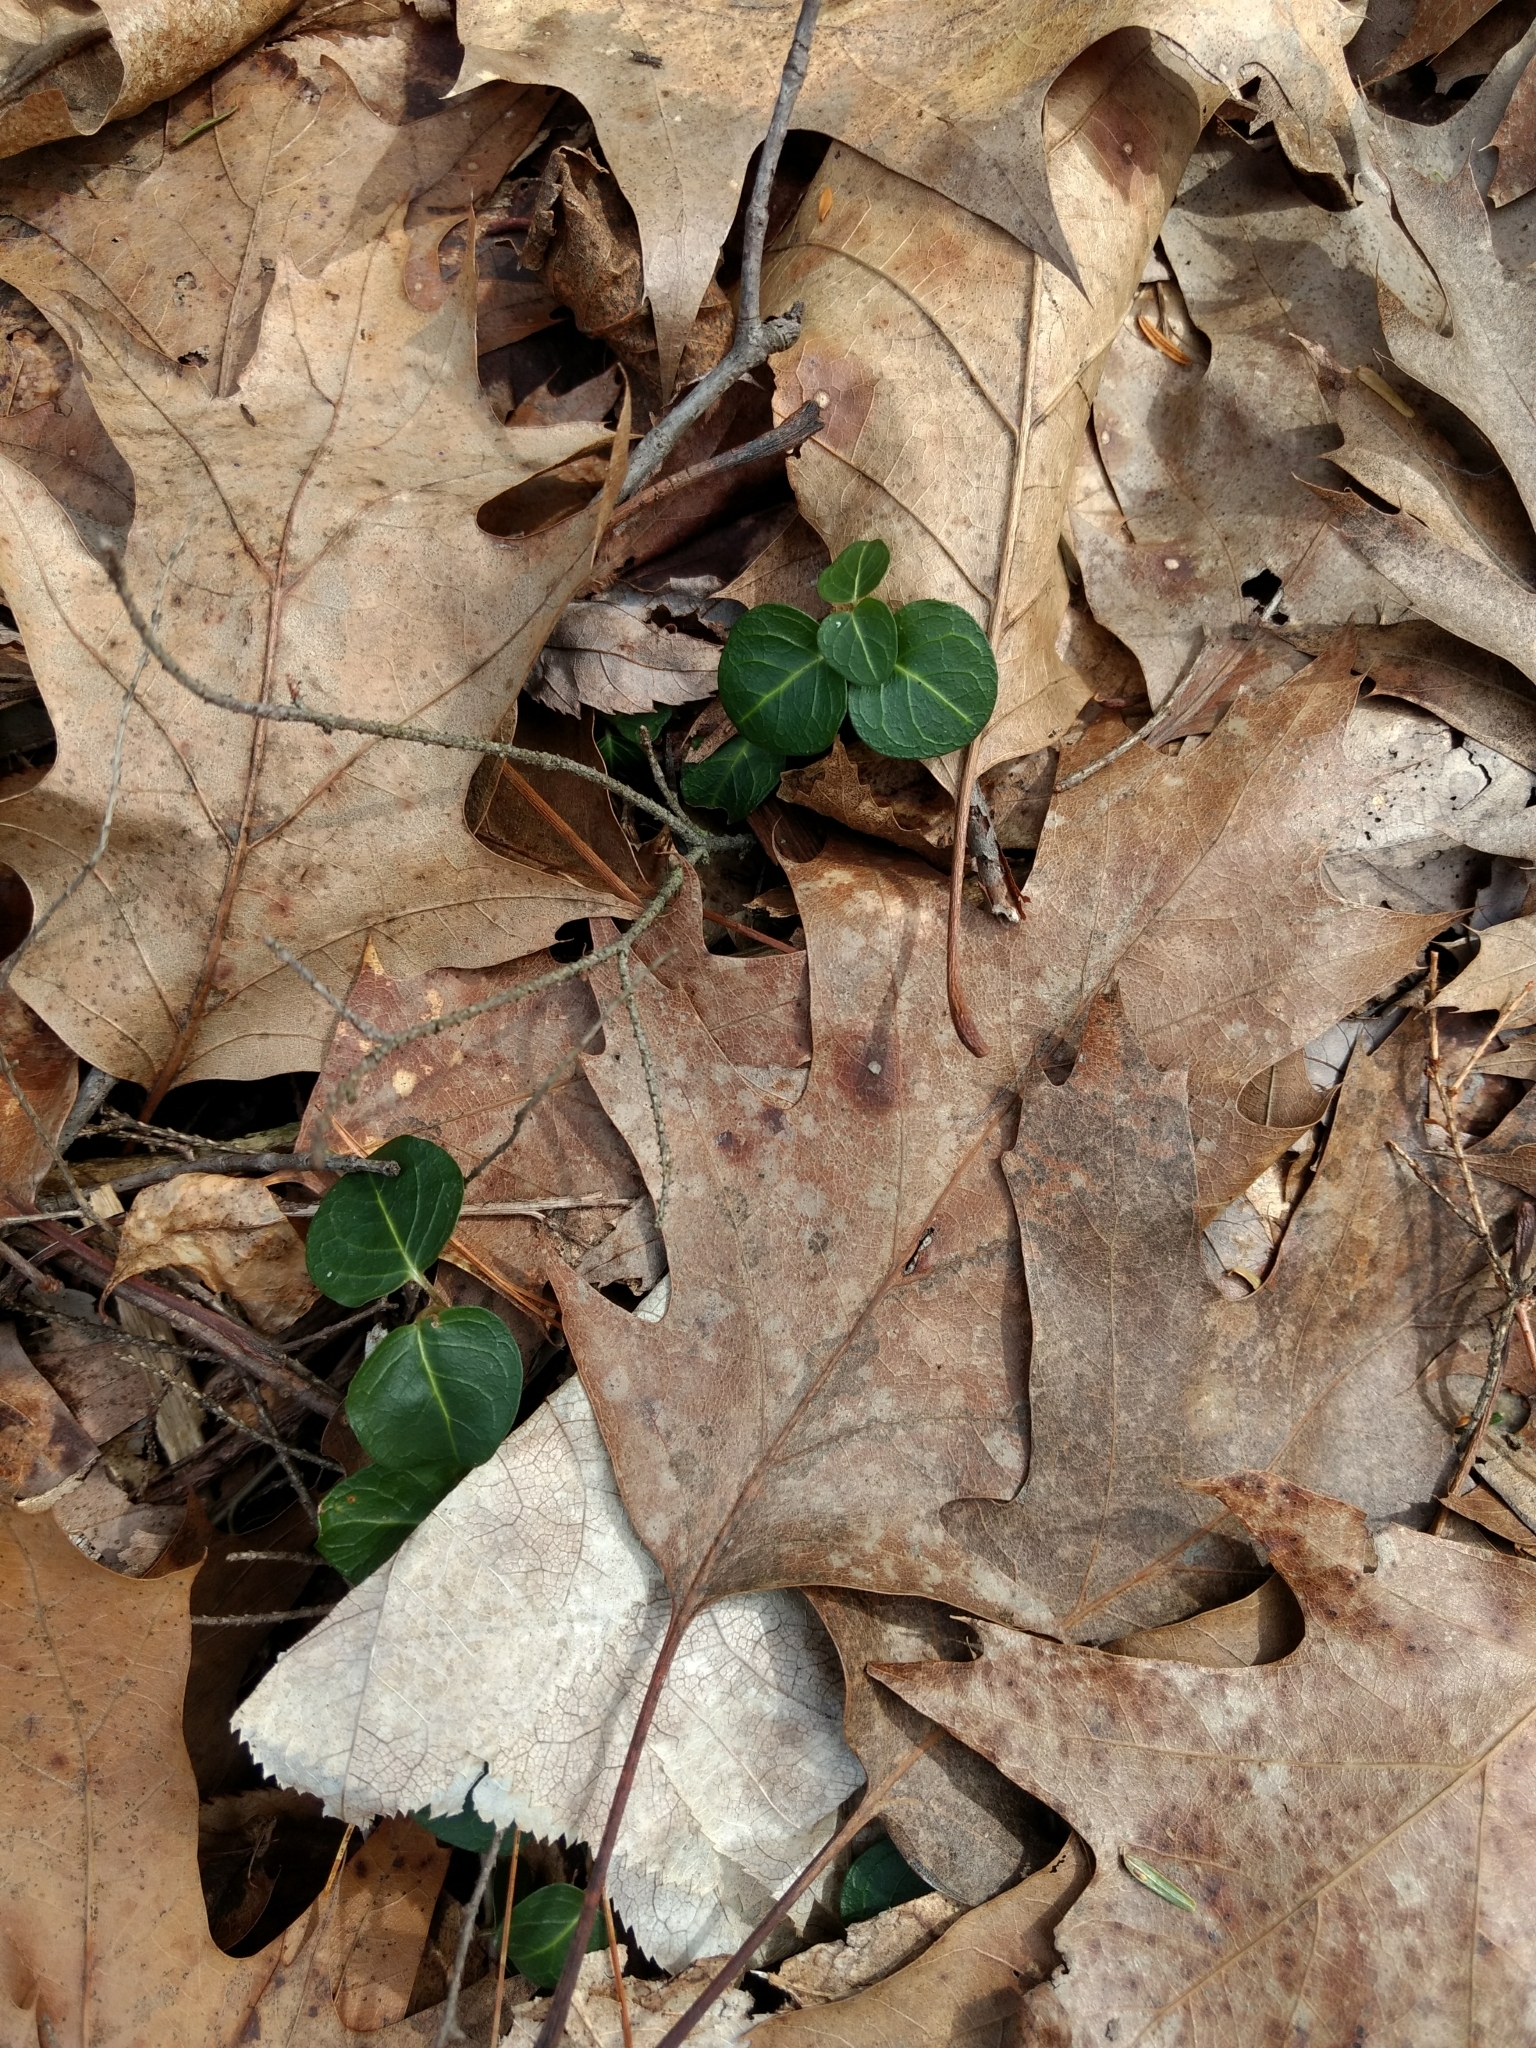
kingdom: Plantae
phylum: Tracheophyta
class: Magnoliopsida
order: Gentianales
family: Rubiaceae
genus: Mitchella
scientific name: Mitchella repens
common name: Partridge-berry
